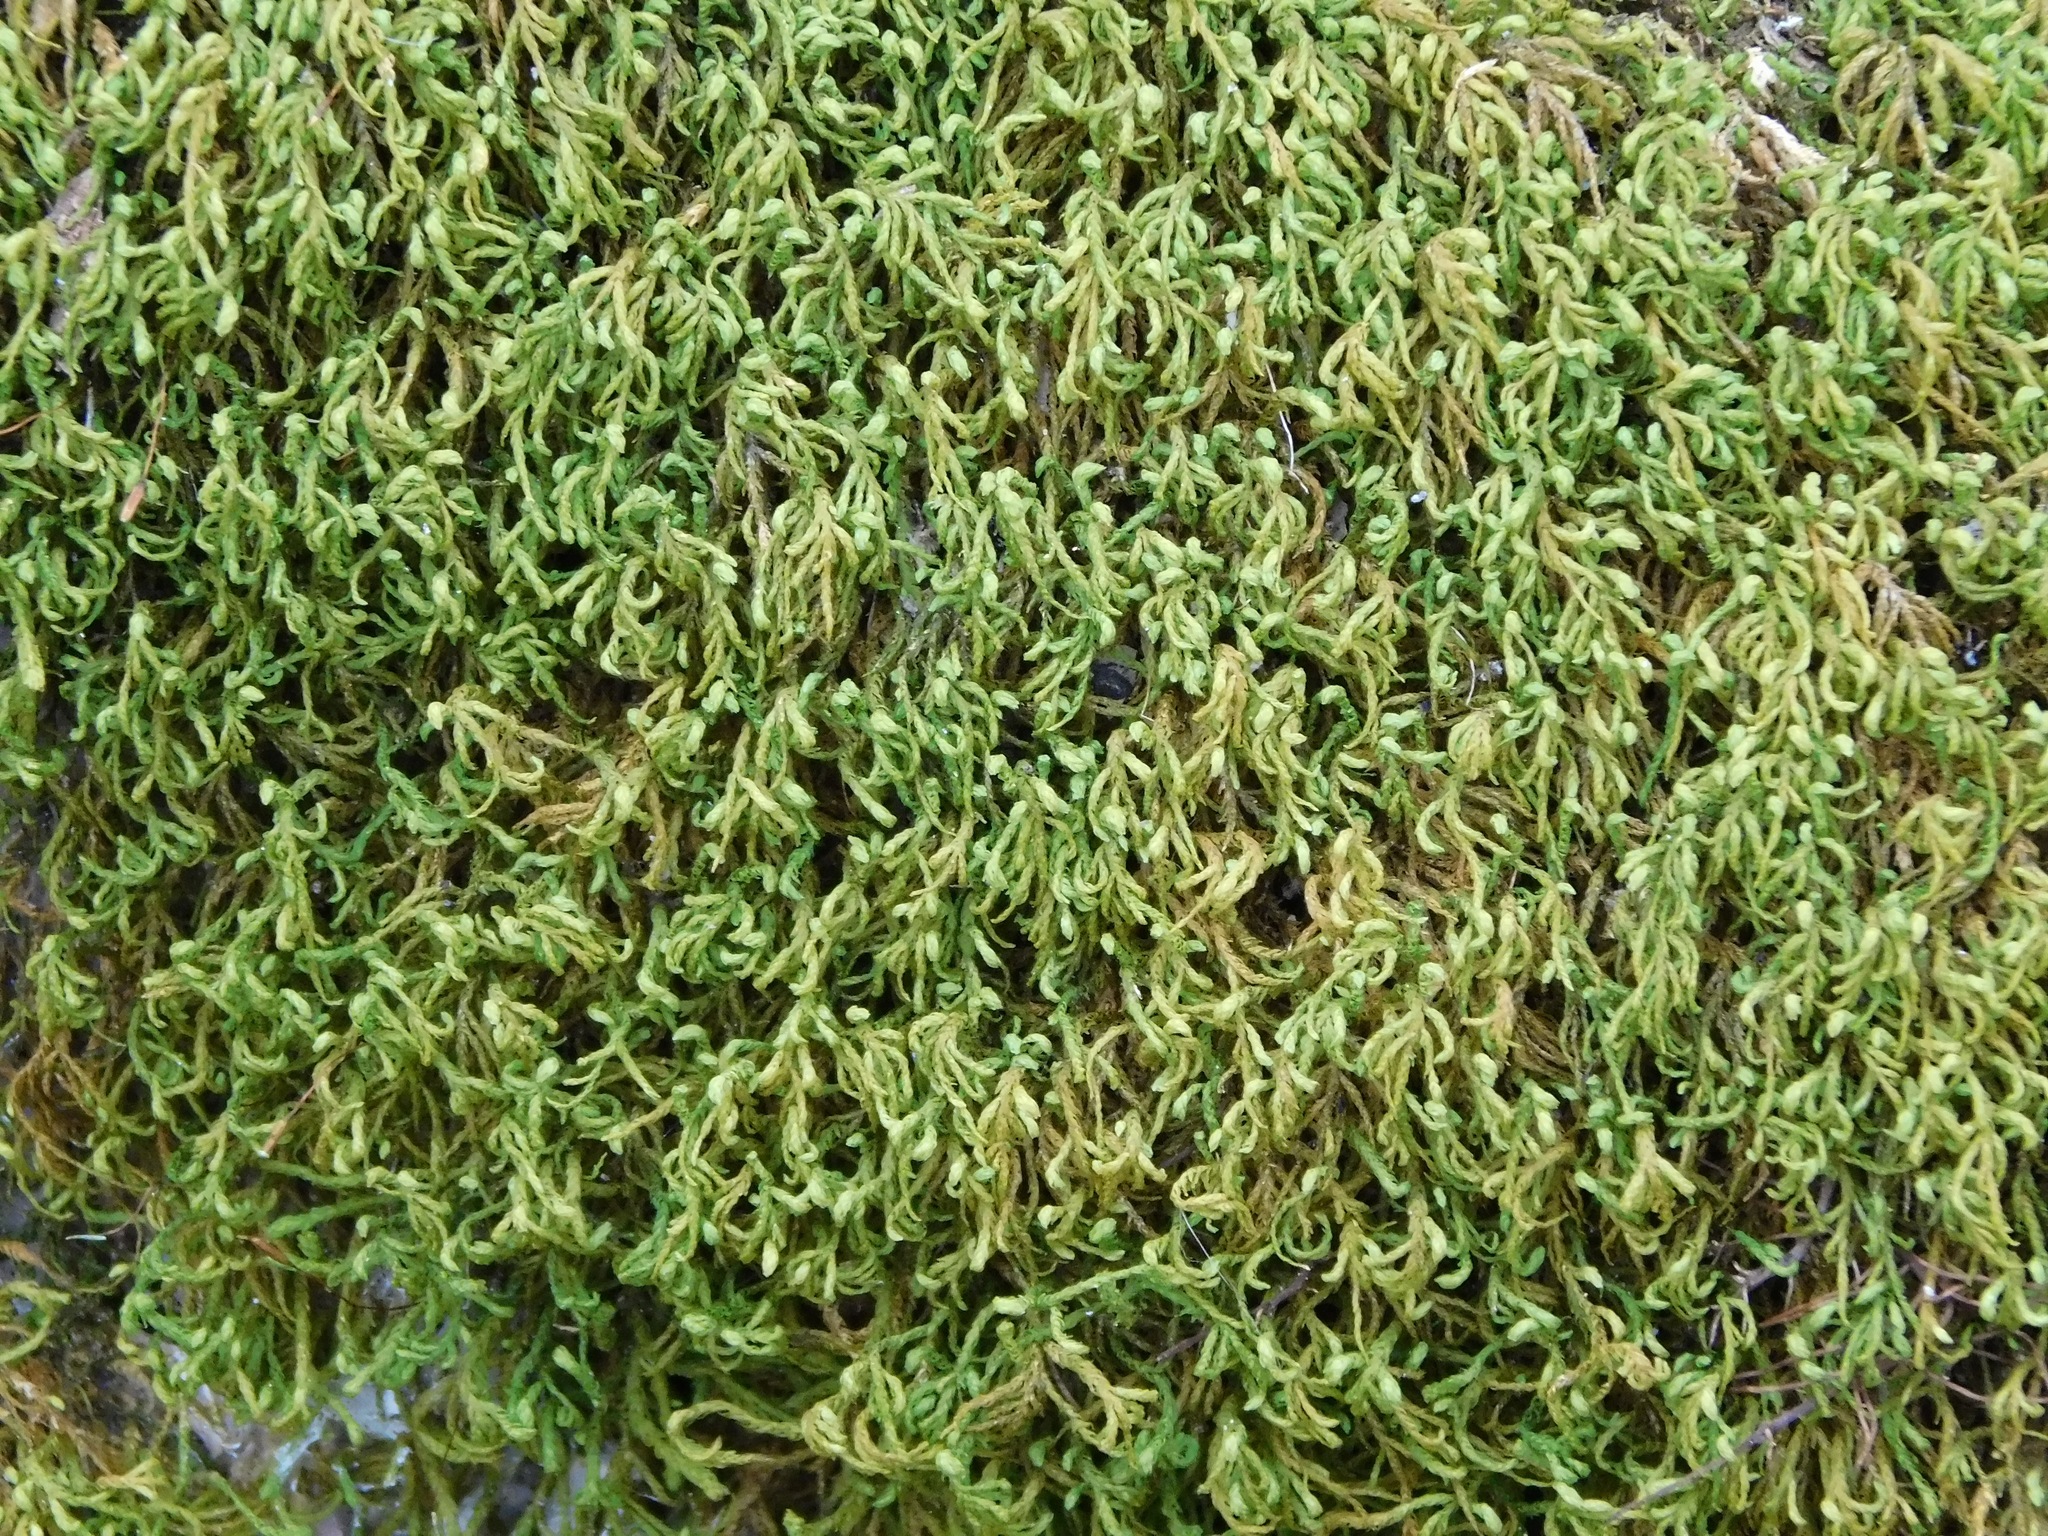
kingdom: Plantae
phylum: Bryophyta
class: Bryopsida
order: Hypnales
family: Neckeraceae
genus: Pseudanomodon
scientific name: Pseudanomodon attenuatus
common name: Tree-skirt moss
